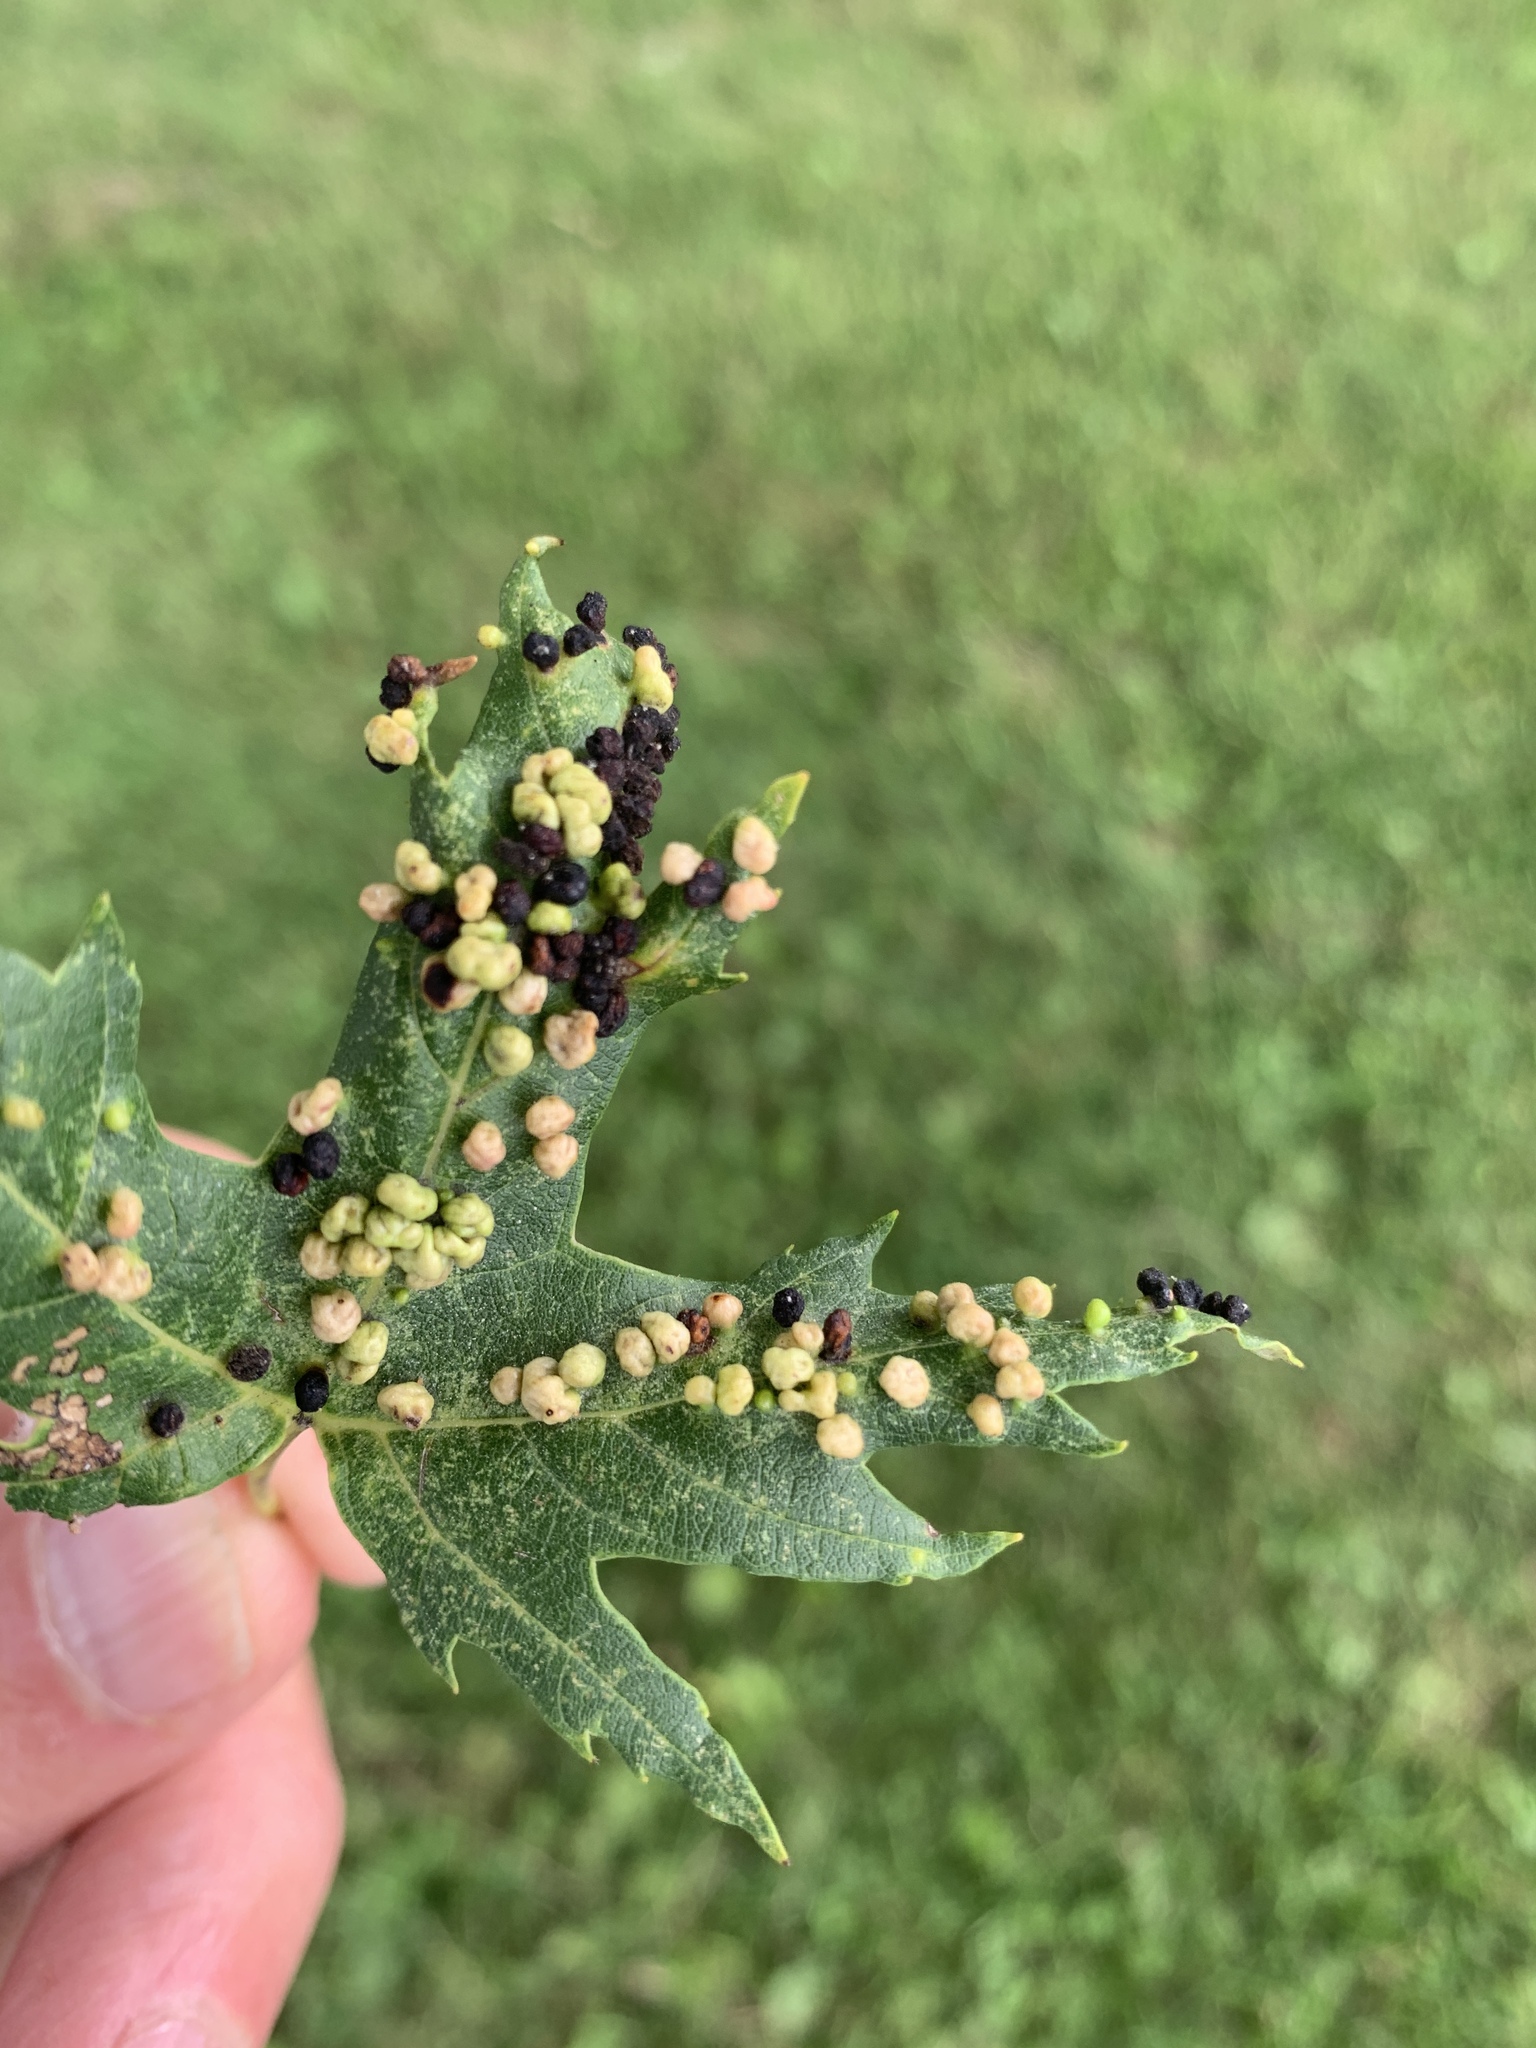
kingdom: Animalia
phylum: Arthropoda
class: Arachnida
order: Trombidiformes
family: Eriophyidae
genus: Vasates
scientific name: Vasates quadripedes
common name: Maple bladder gall mite
